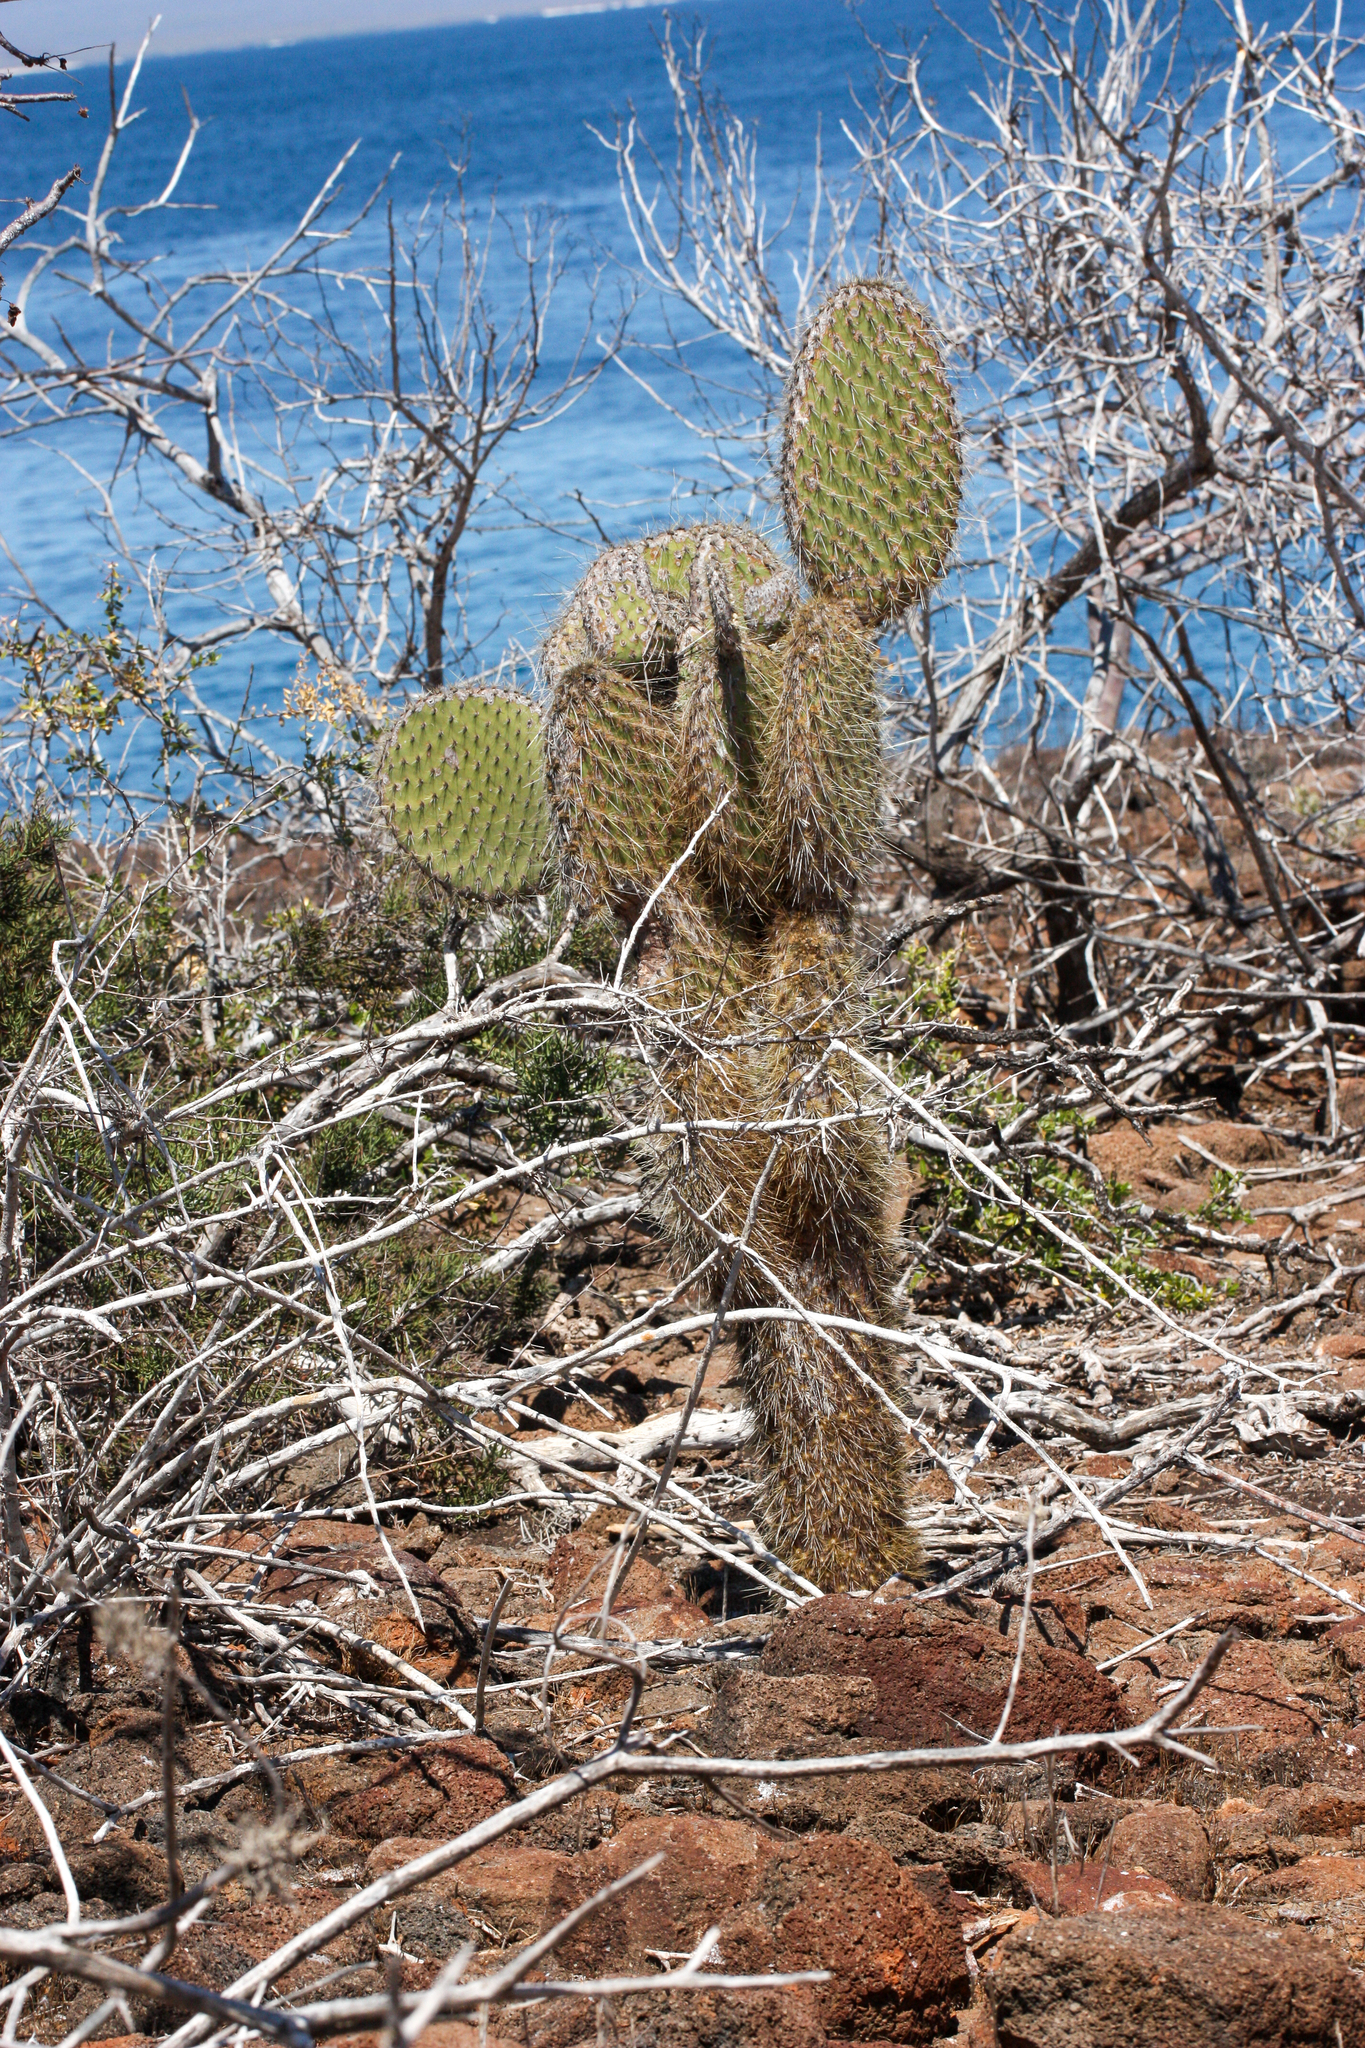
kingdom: Plantae
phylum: Tracheophyta
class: Magnoliopsida
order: Caryophyllales
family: Cactaceae
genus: Opuntia
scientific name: Opuntia galapageia
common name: Galápagos prickly pear
